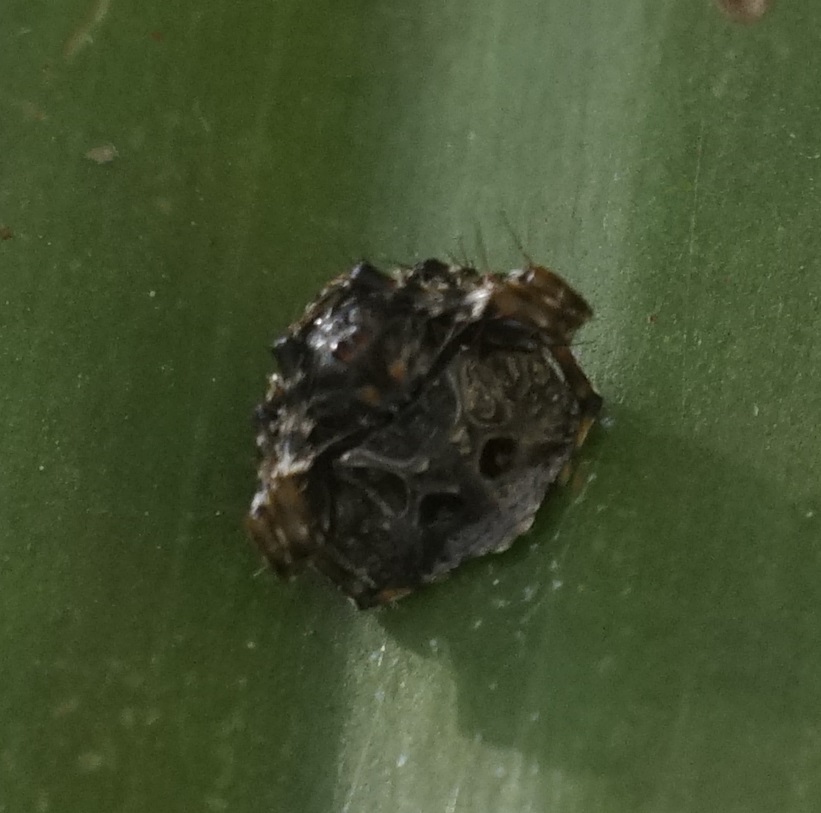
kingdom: Animalia
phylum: Arthropoda
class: Arachnida
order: Araneae
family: Arkyidae
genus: Arkys
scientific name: Arkys curtulus
